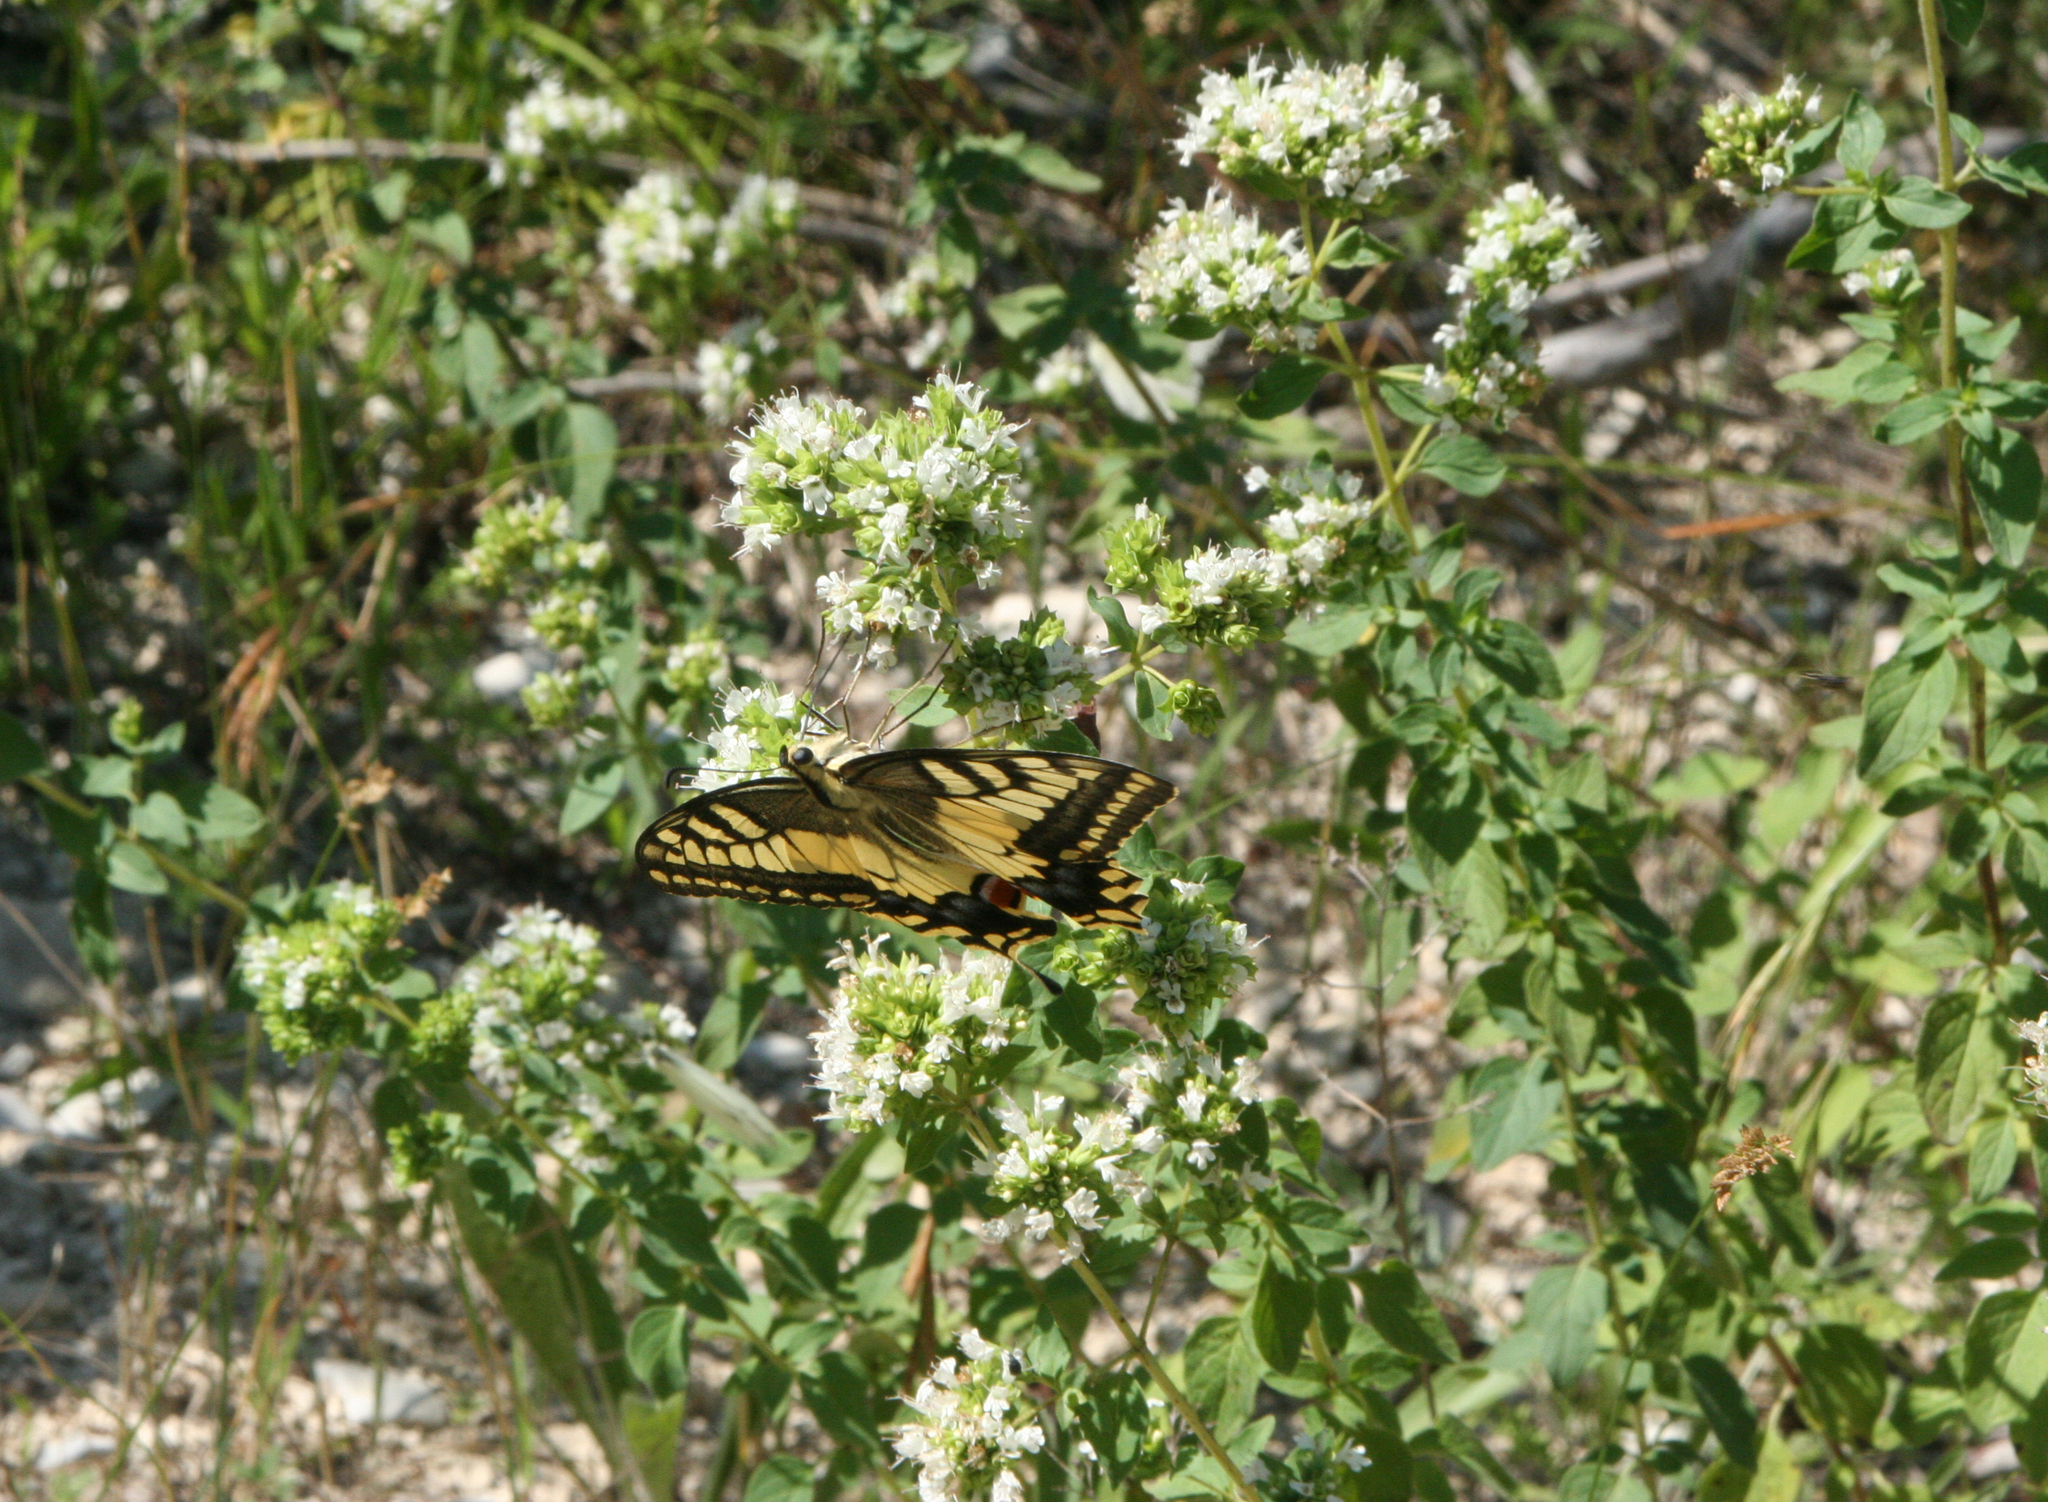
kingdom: Plantae
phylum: Tracheophyta
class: Magnoliopsida
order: Lamiales
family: Lamiaceae
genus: Origanum
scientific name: Origanum vulgare
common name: Wild marjoram
